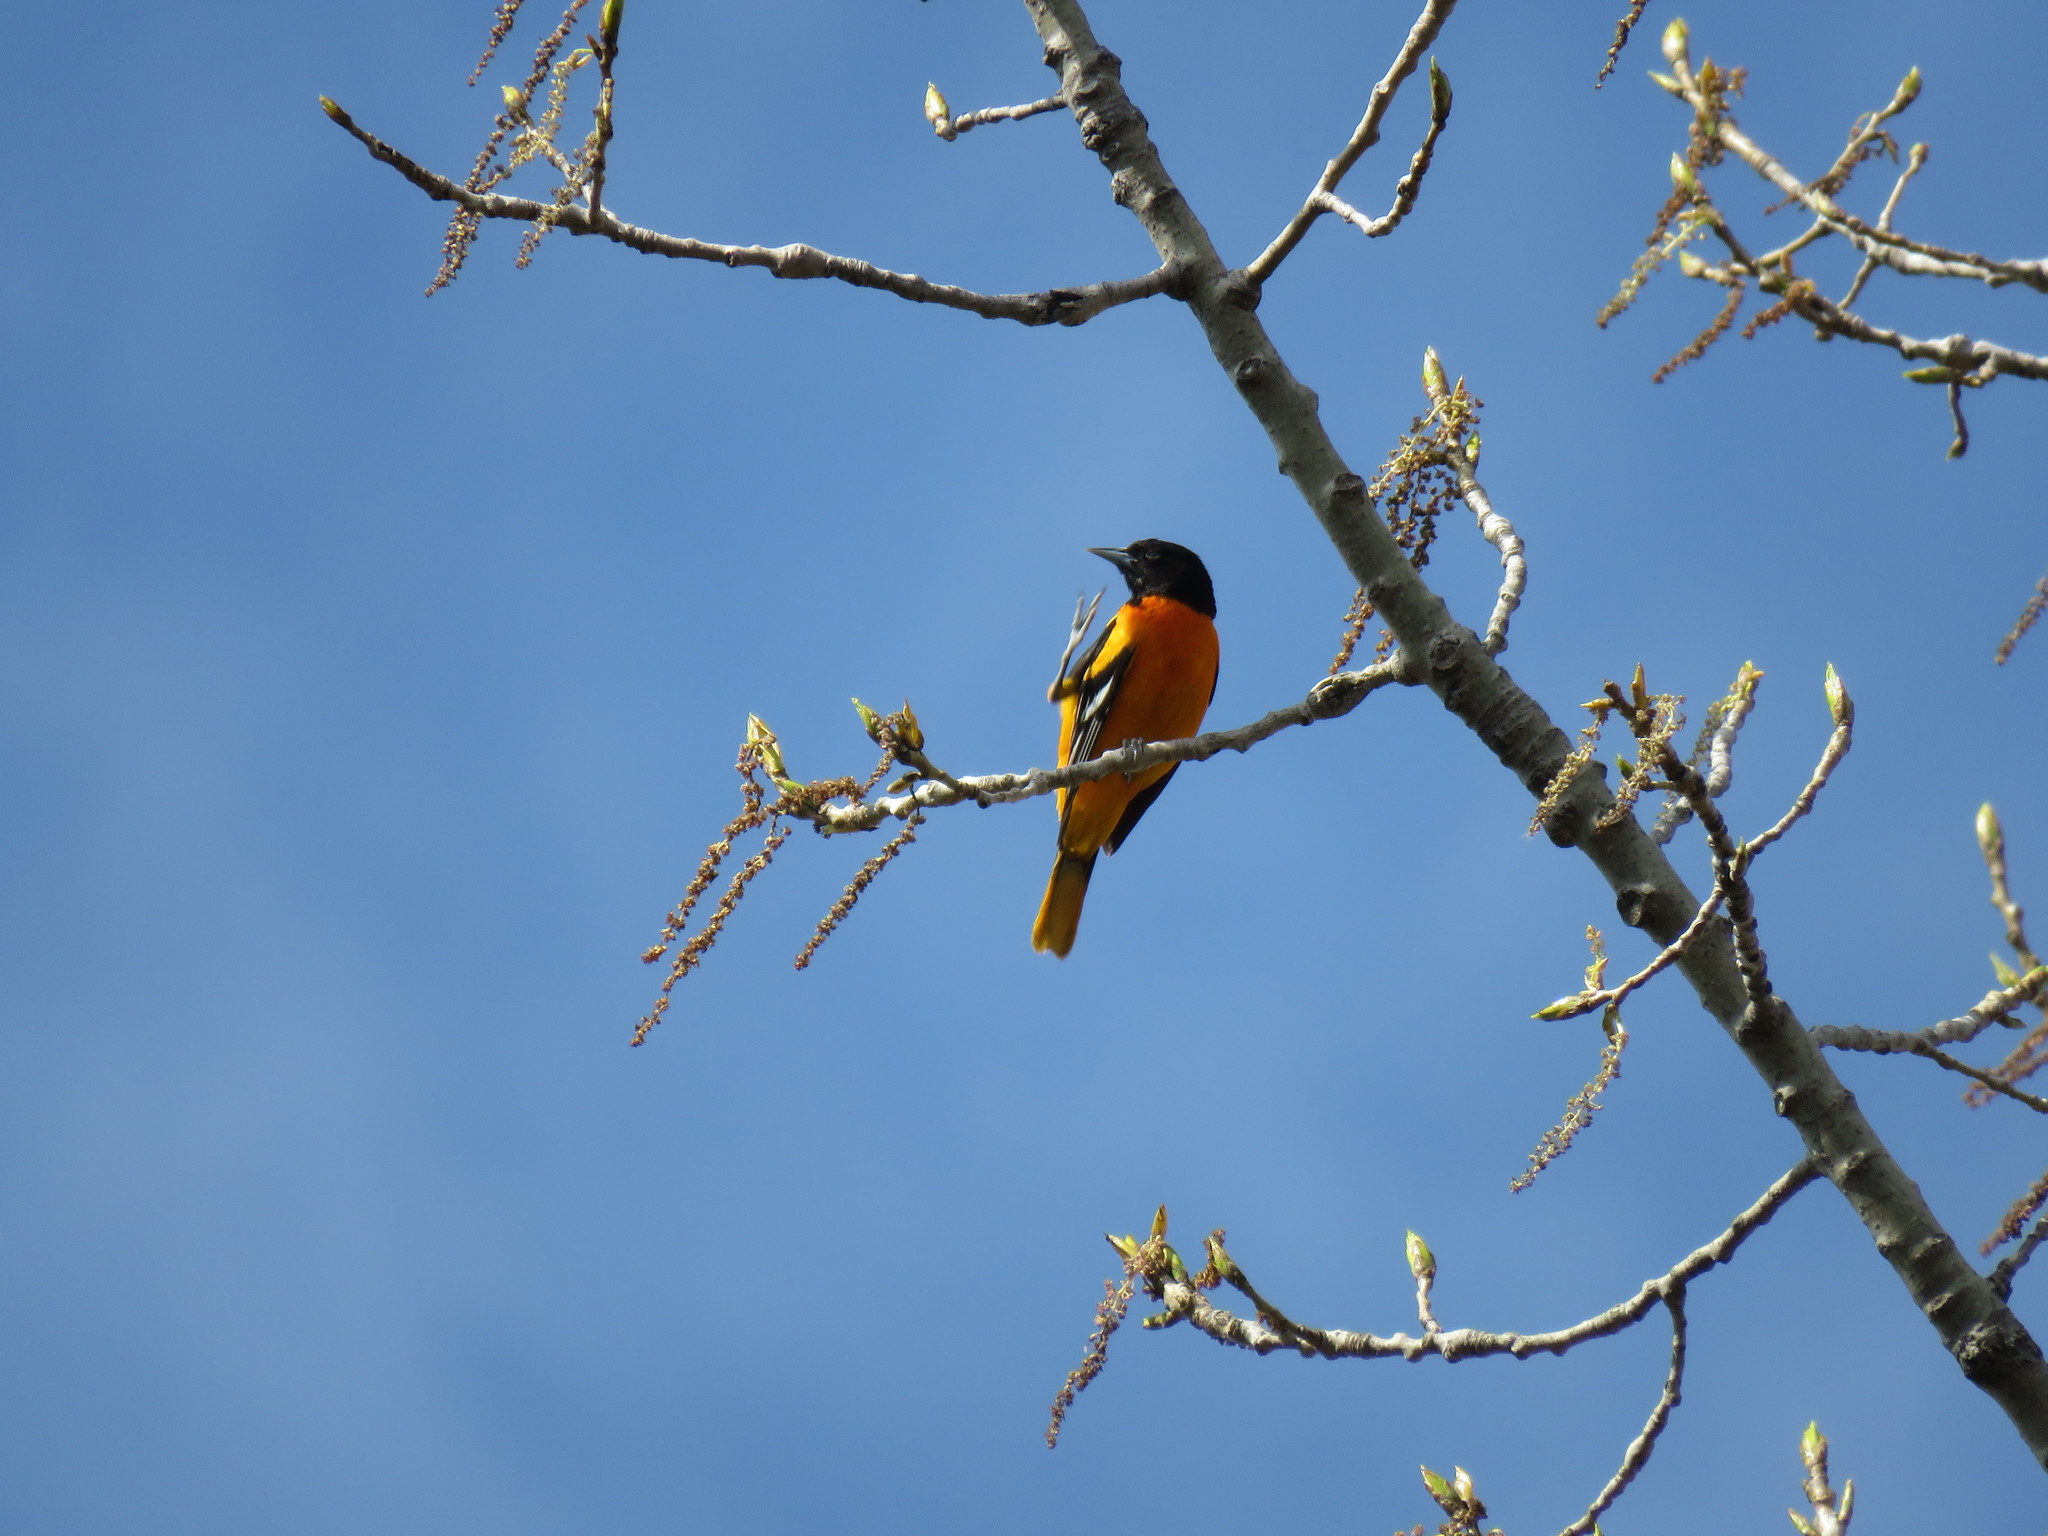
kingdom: Animalia
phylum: Chordata
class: Aves
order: Passeriformes
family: Icteridae
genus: Icterus
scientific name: Icterus galbula
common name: Baltimore oriole
